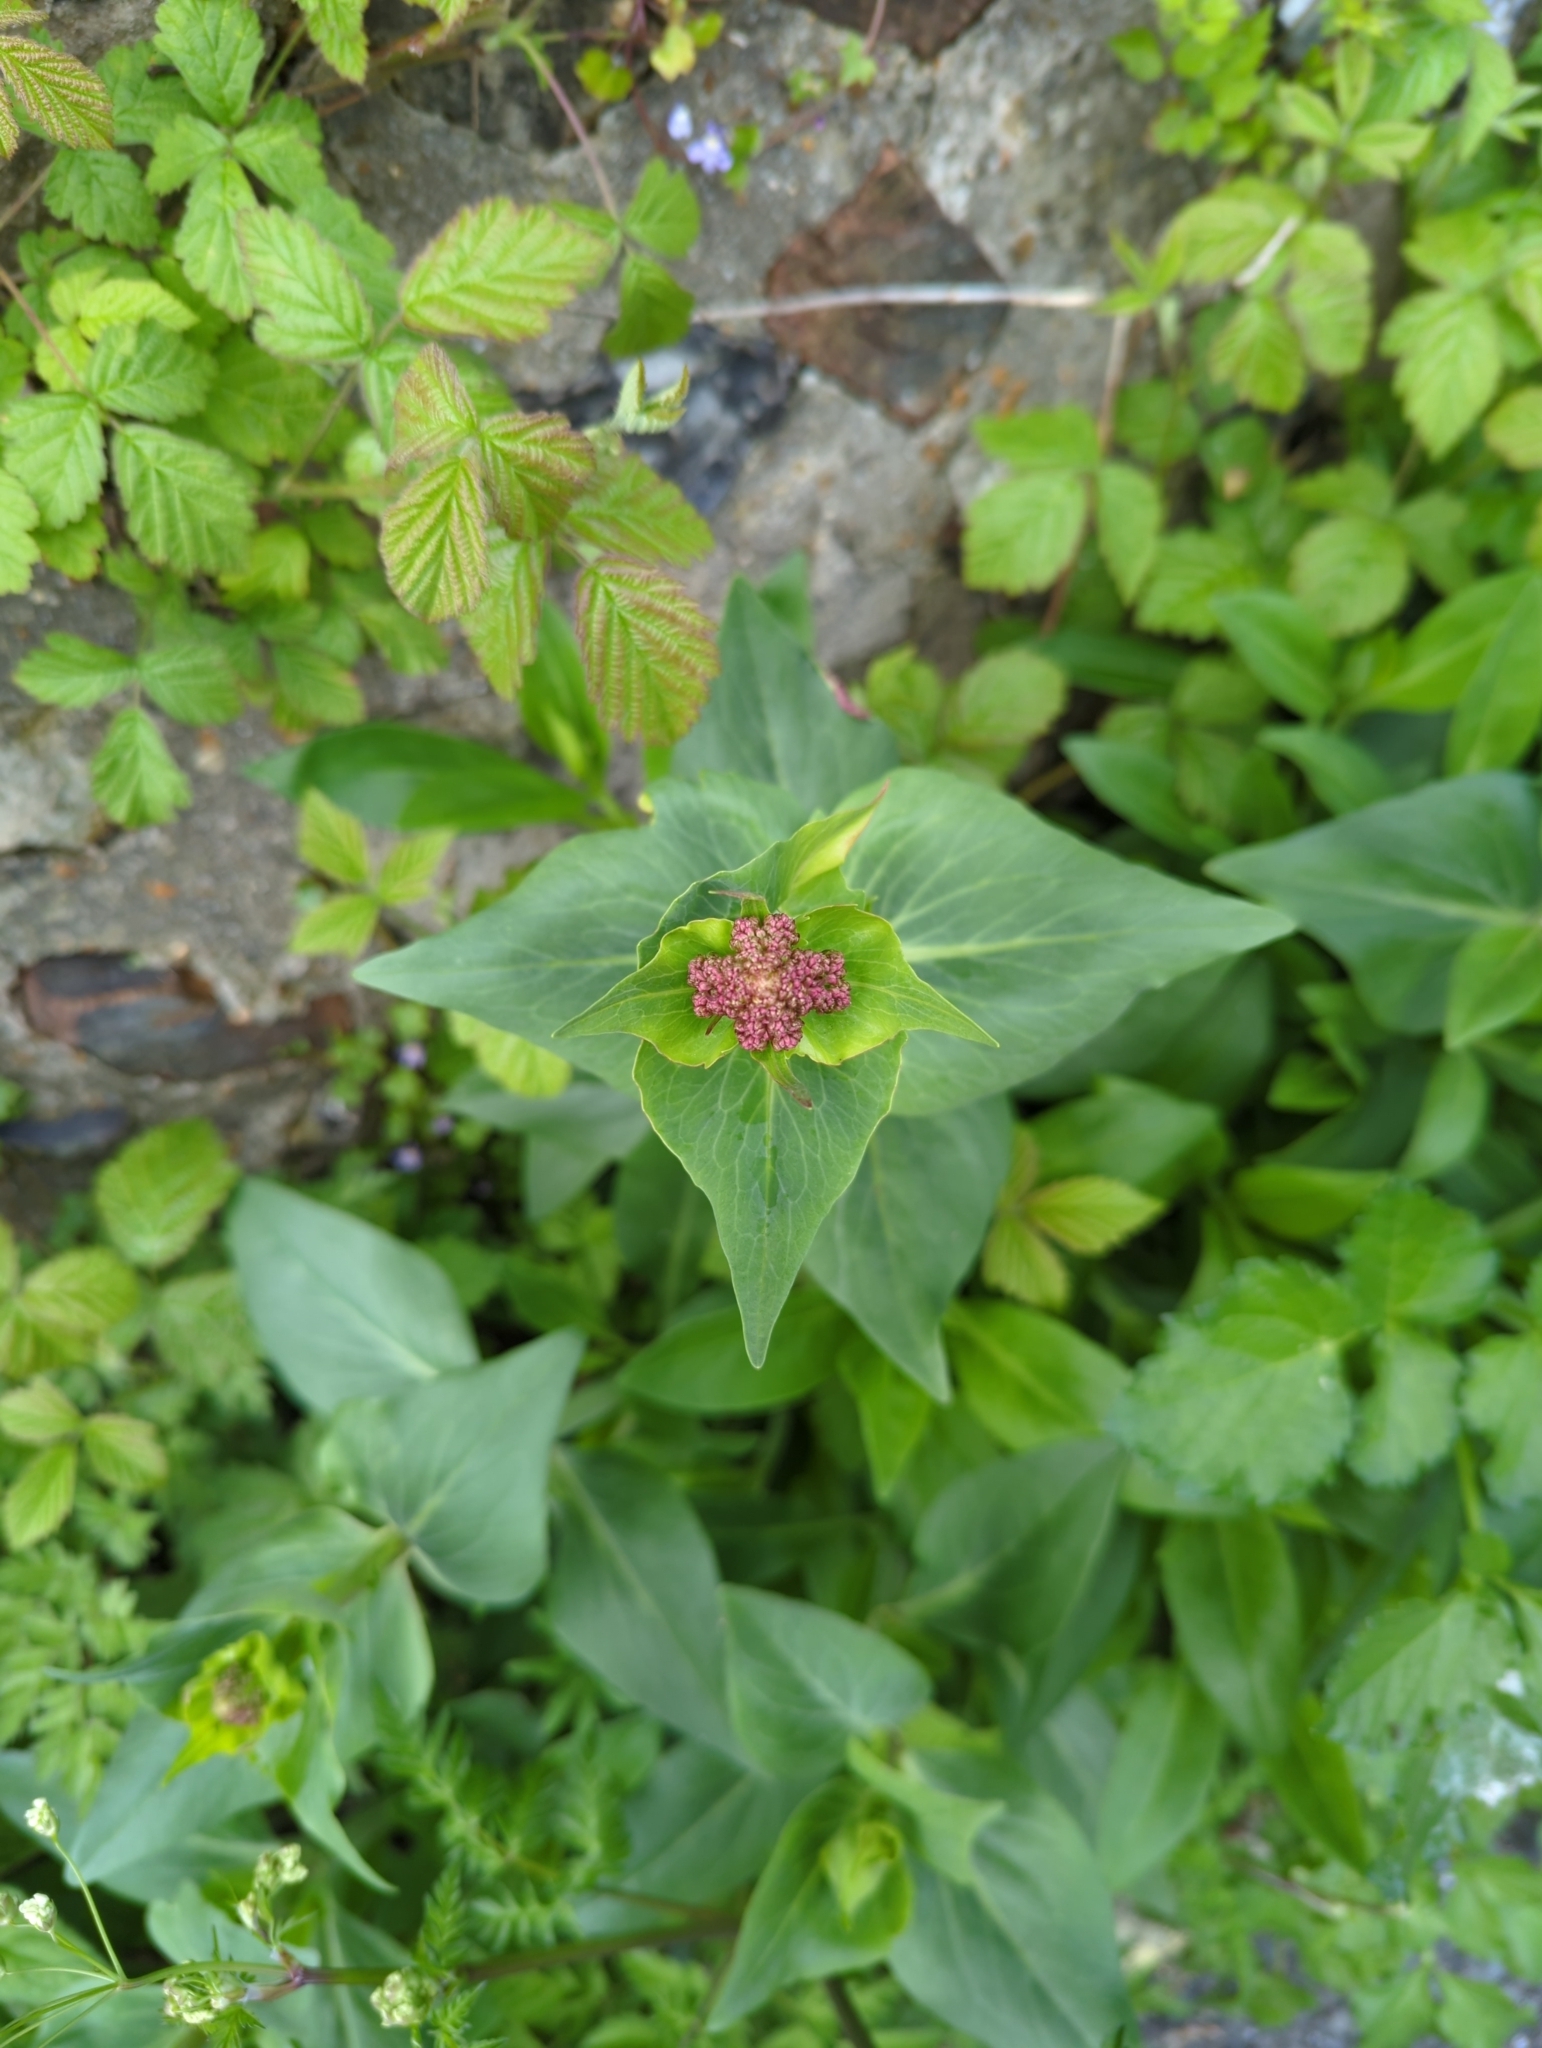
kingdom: Plantae
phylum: Tracheophyta
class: Magnoliopsida
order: Dipsacales
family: Caprifoliaceae
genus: Centranthus
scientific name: Centranthus ruber
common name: Red valerian
